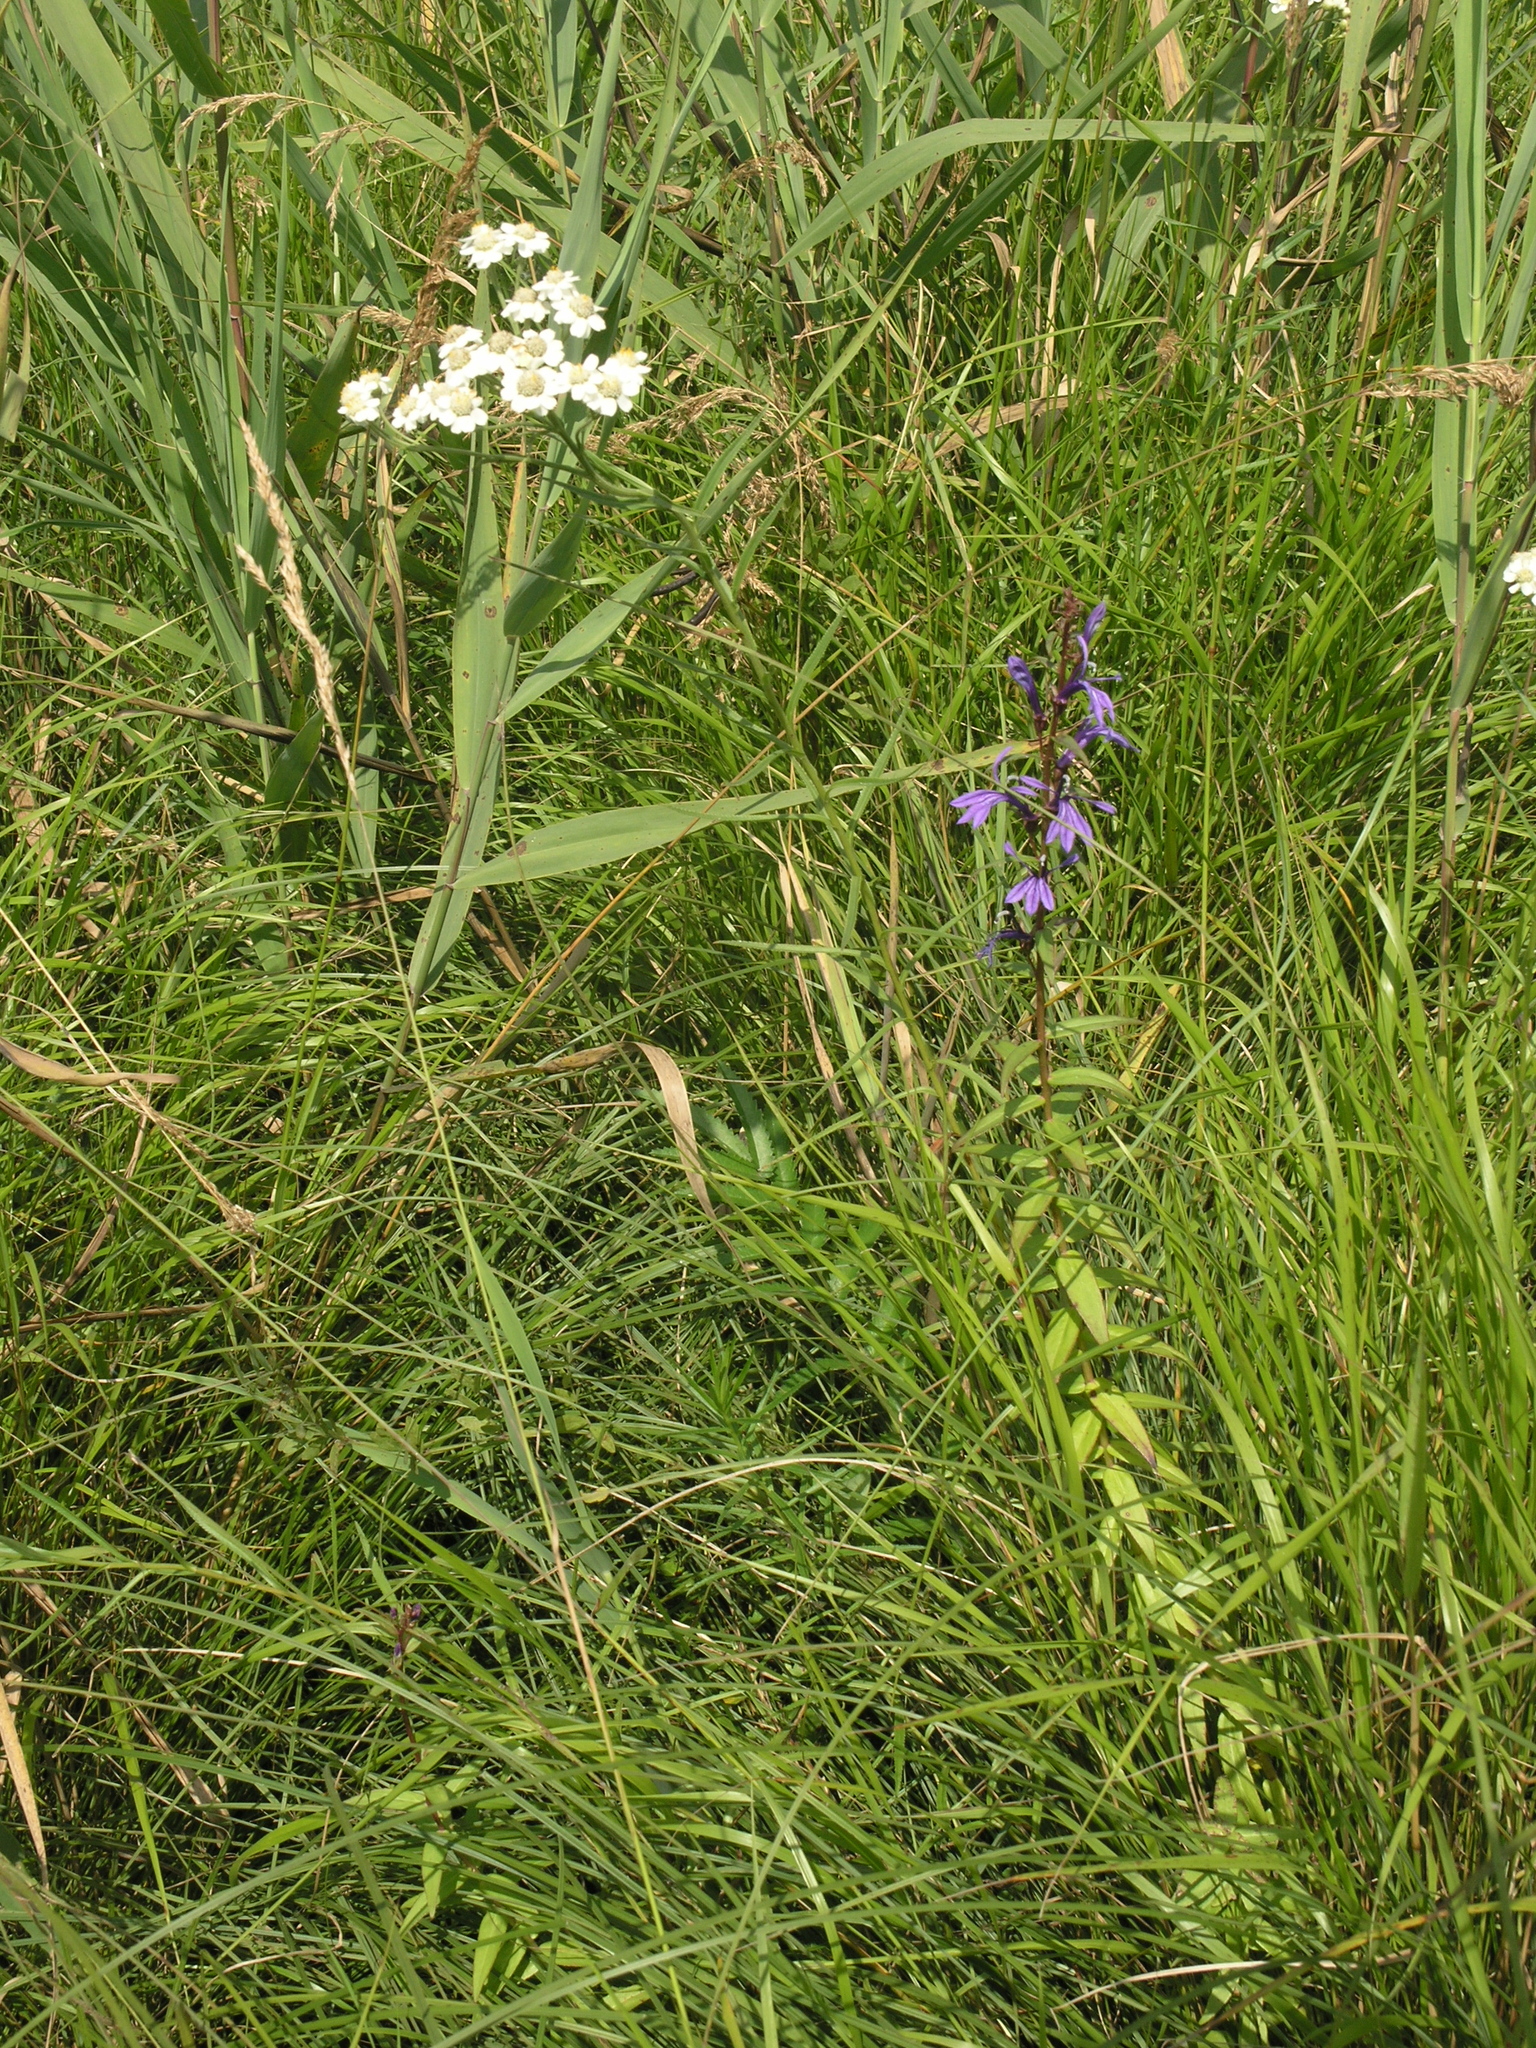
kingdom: Plantae
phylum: Tracheophyta
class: Magnoliopsida
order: Asterales
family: Campanulaceae
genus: Lobelia
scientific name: Lobelia sessilifolia
